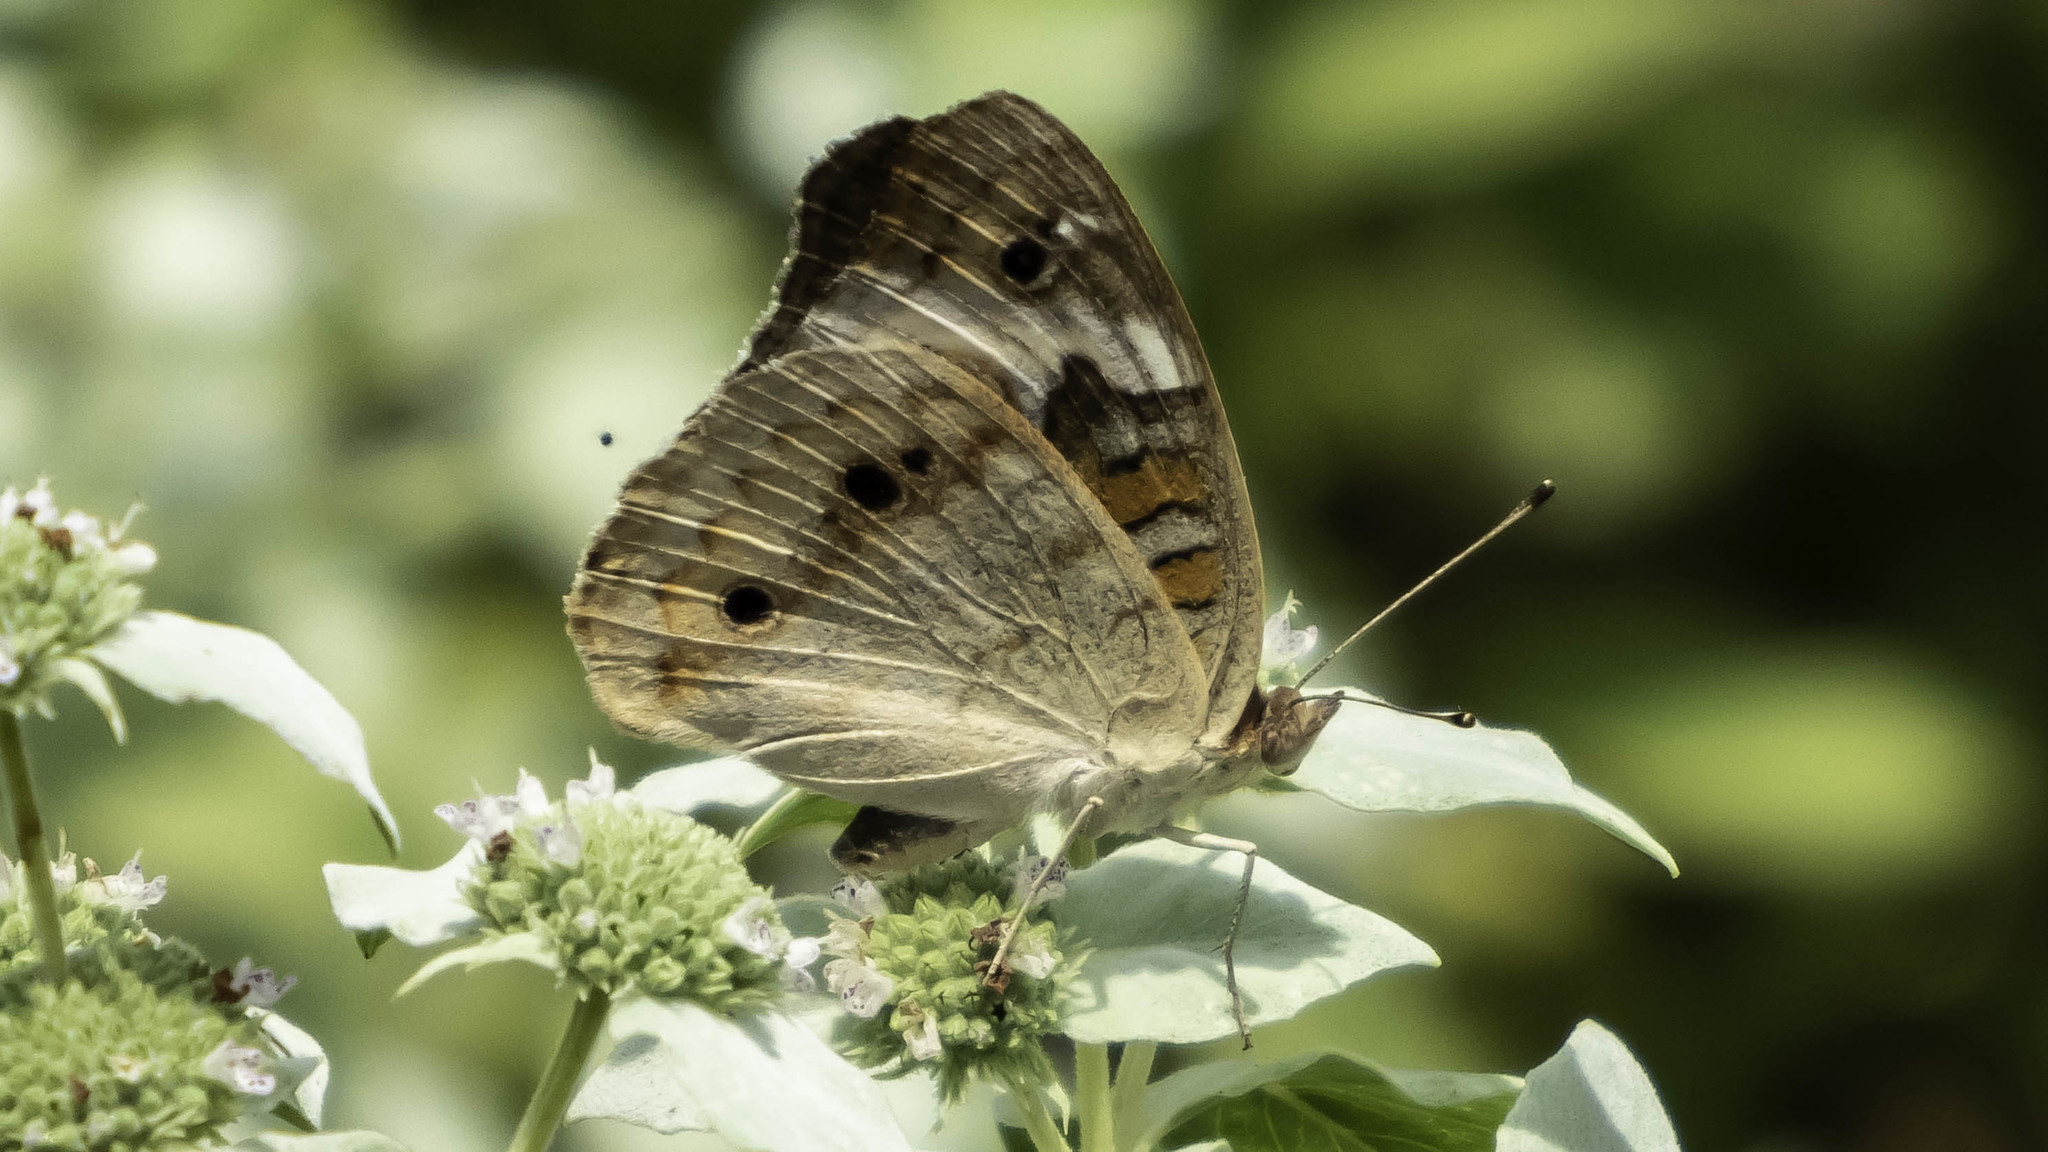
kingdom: Animalia
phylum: Arthropoda
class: Insecta
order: Lepidoptera
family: Nymphalidae
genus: Junonia
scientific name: Junonia coenia
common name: Common buckeye
